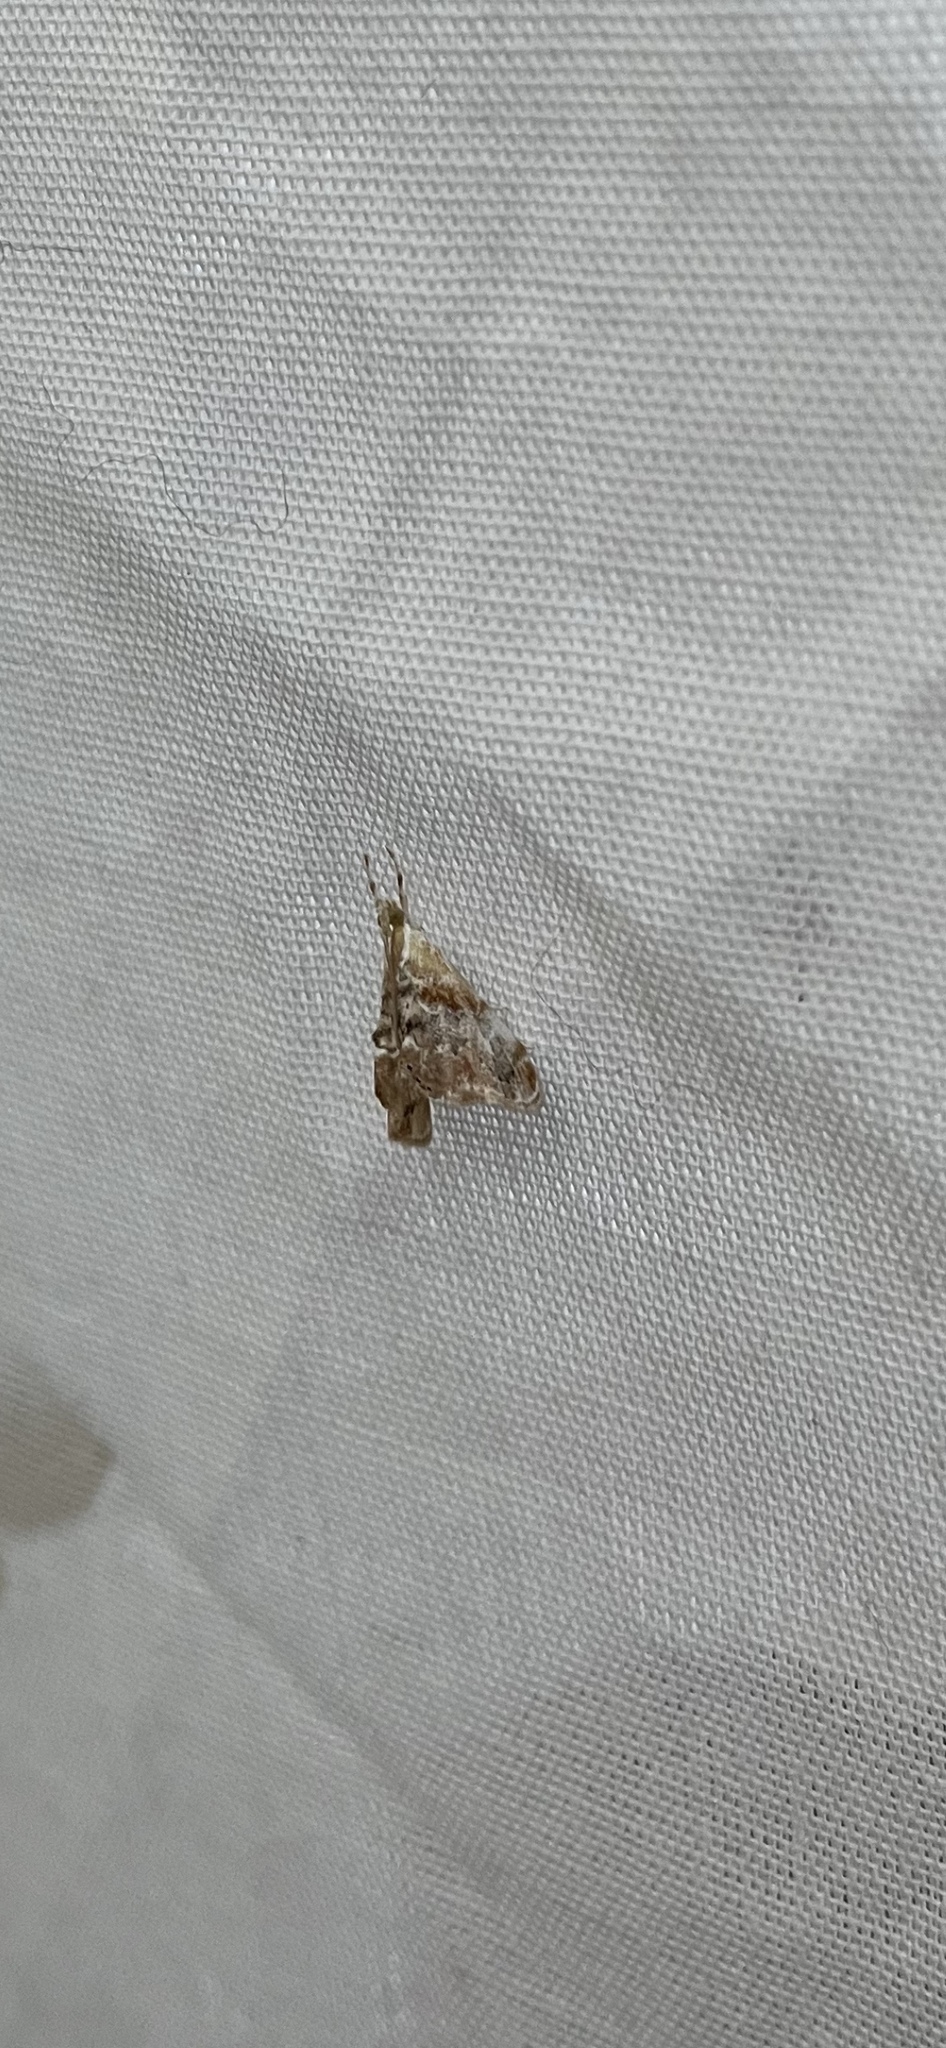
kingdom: Animalia
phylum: Arthropoda
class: Insecta
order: Lepidoptera
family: Crambidae
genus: Dicymolomia
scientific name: Dicymolomia julianalis
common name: Julia's dicymolomia moth
